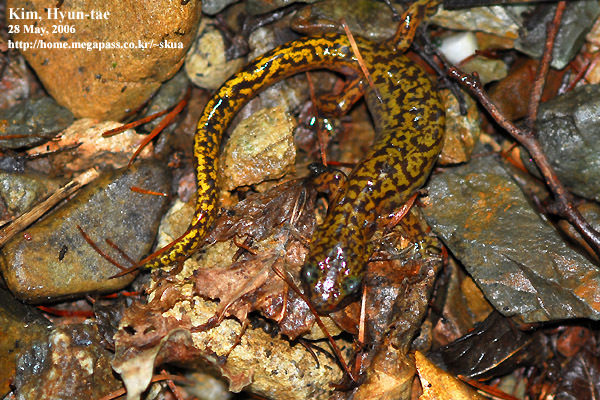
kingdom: Animalia
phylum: Chordata
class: Amphibia
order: Caudata
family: Hynobiidae
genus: Onychodactylus
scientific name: Onychodactylus koreanus
